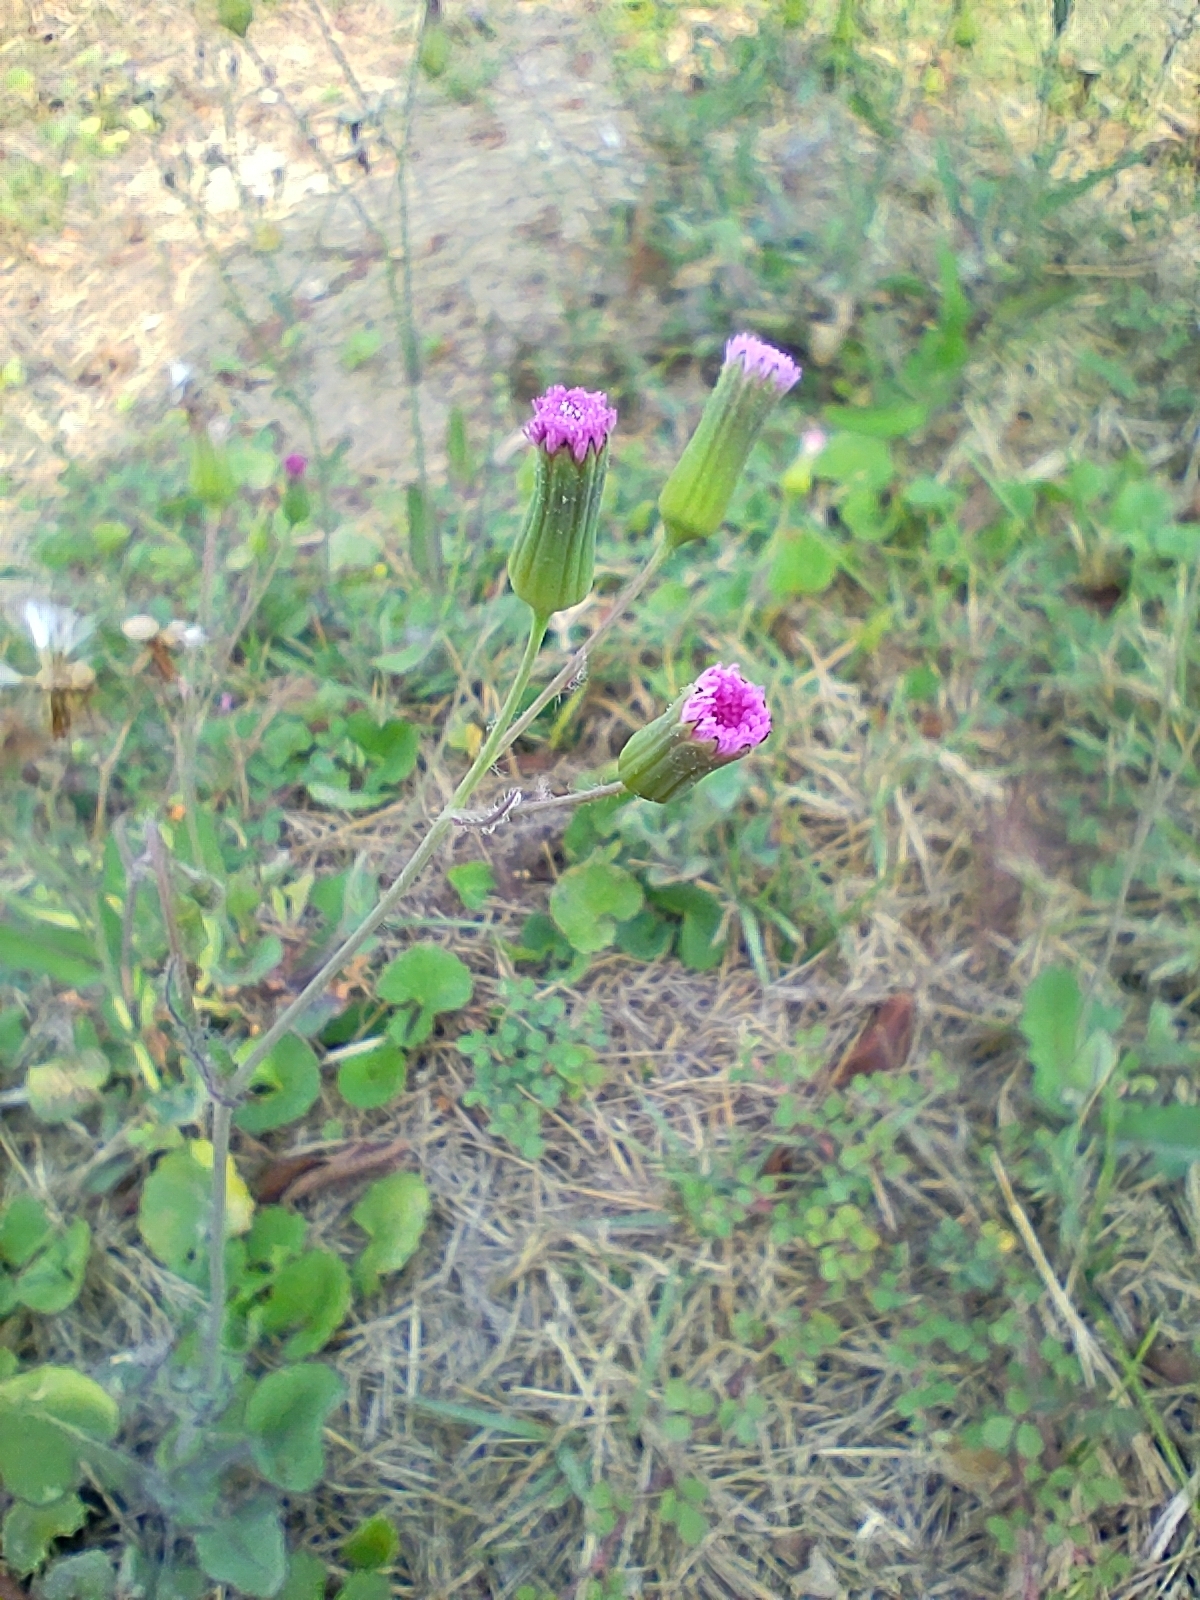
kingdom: Plantae
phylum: Tracheophyta
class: Magnoliopsida
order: Asterales
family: Asteraceae
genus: Emilia
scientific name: Emilia javanica
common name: Tassel-flower
